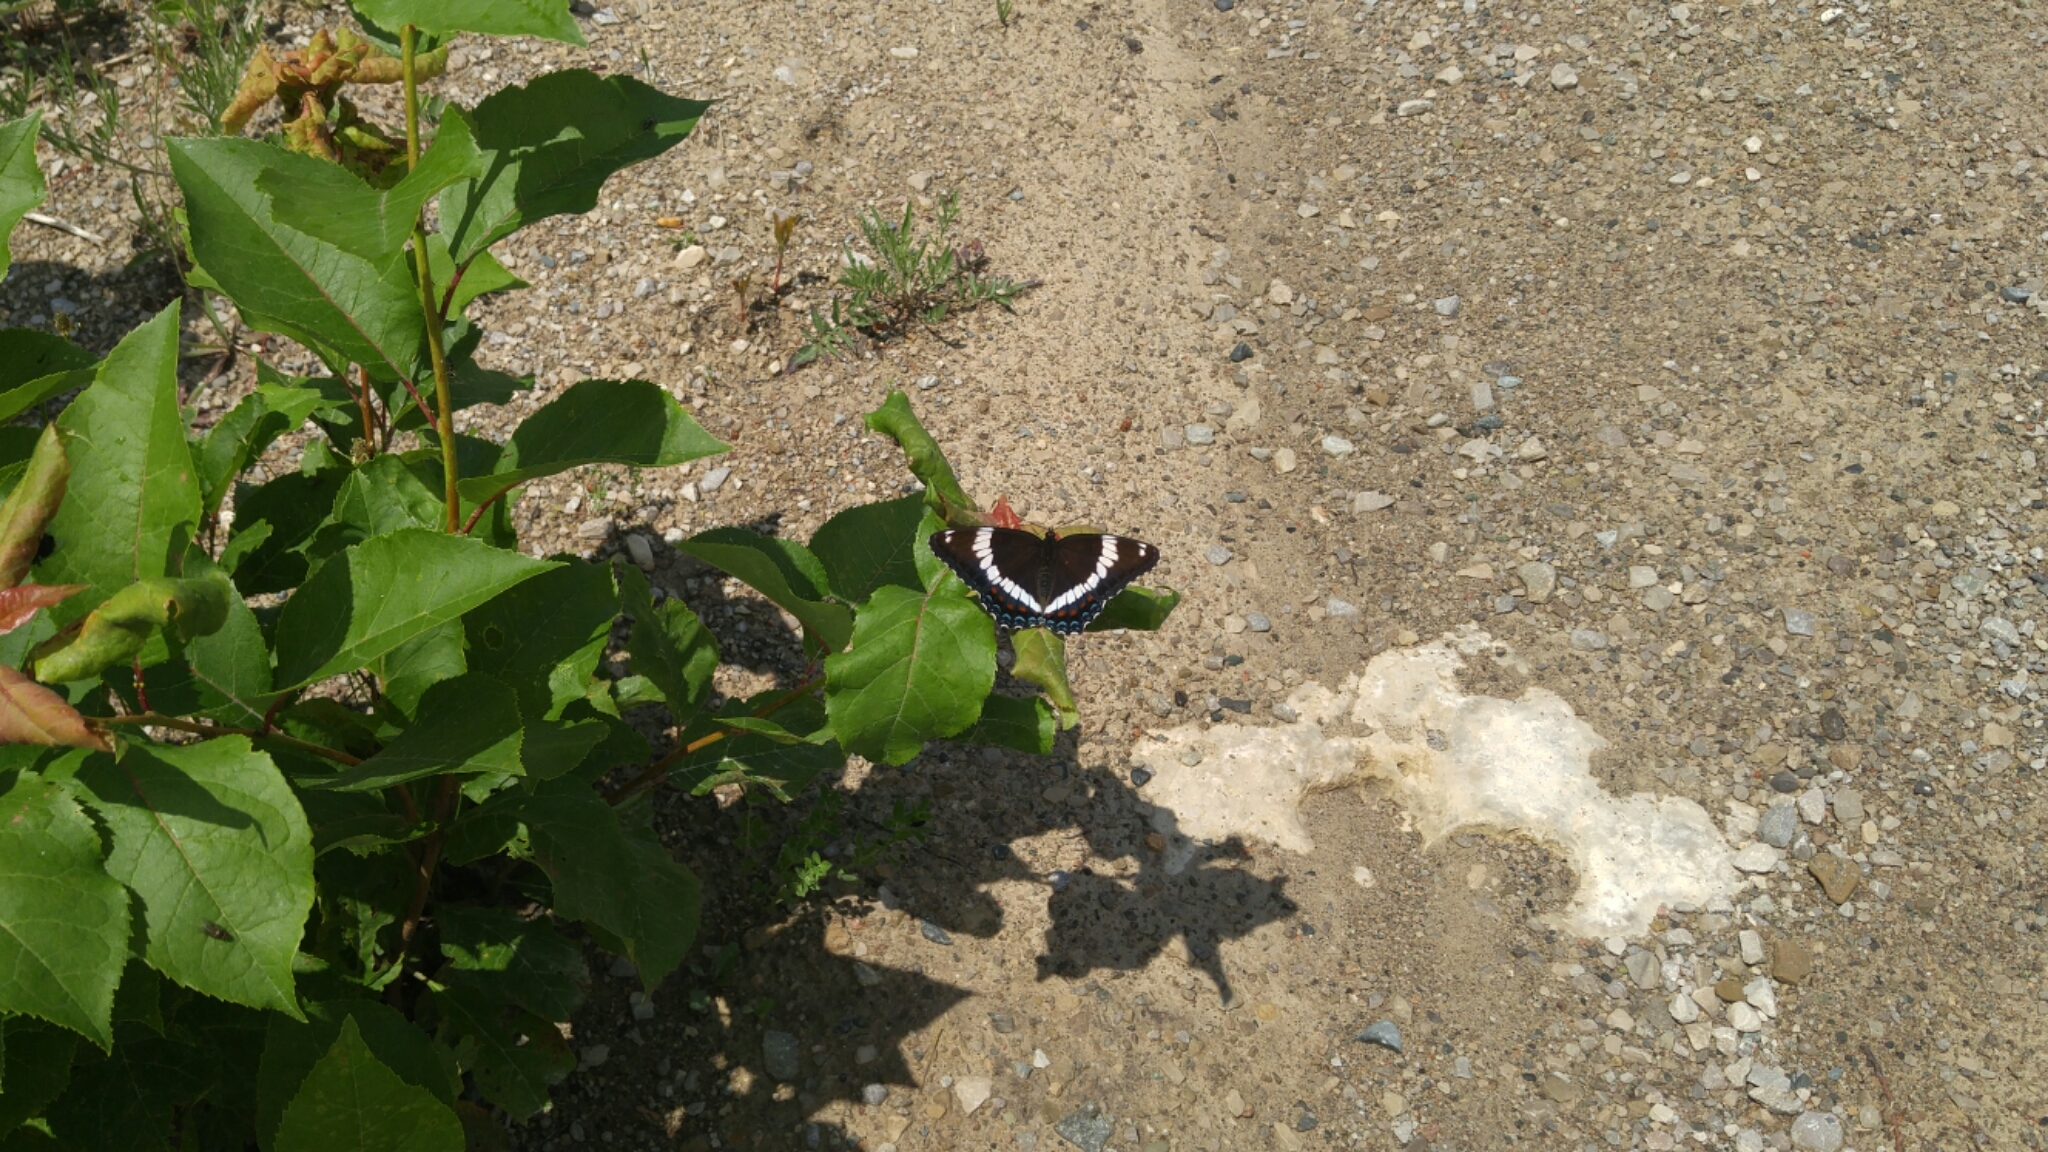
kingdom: Animalia
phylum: Arthropoda
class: Insecta
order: Lepidoptera
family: Nymphalidae
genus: Limenitis
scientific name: Limenitis arthemis
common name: Red-spotted admiral
